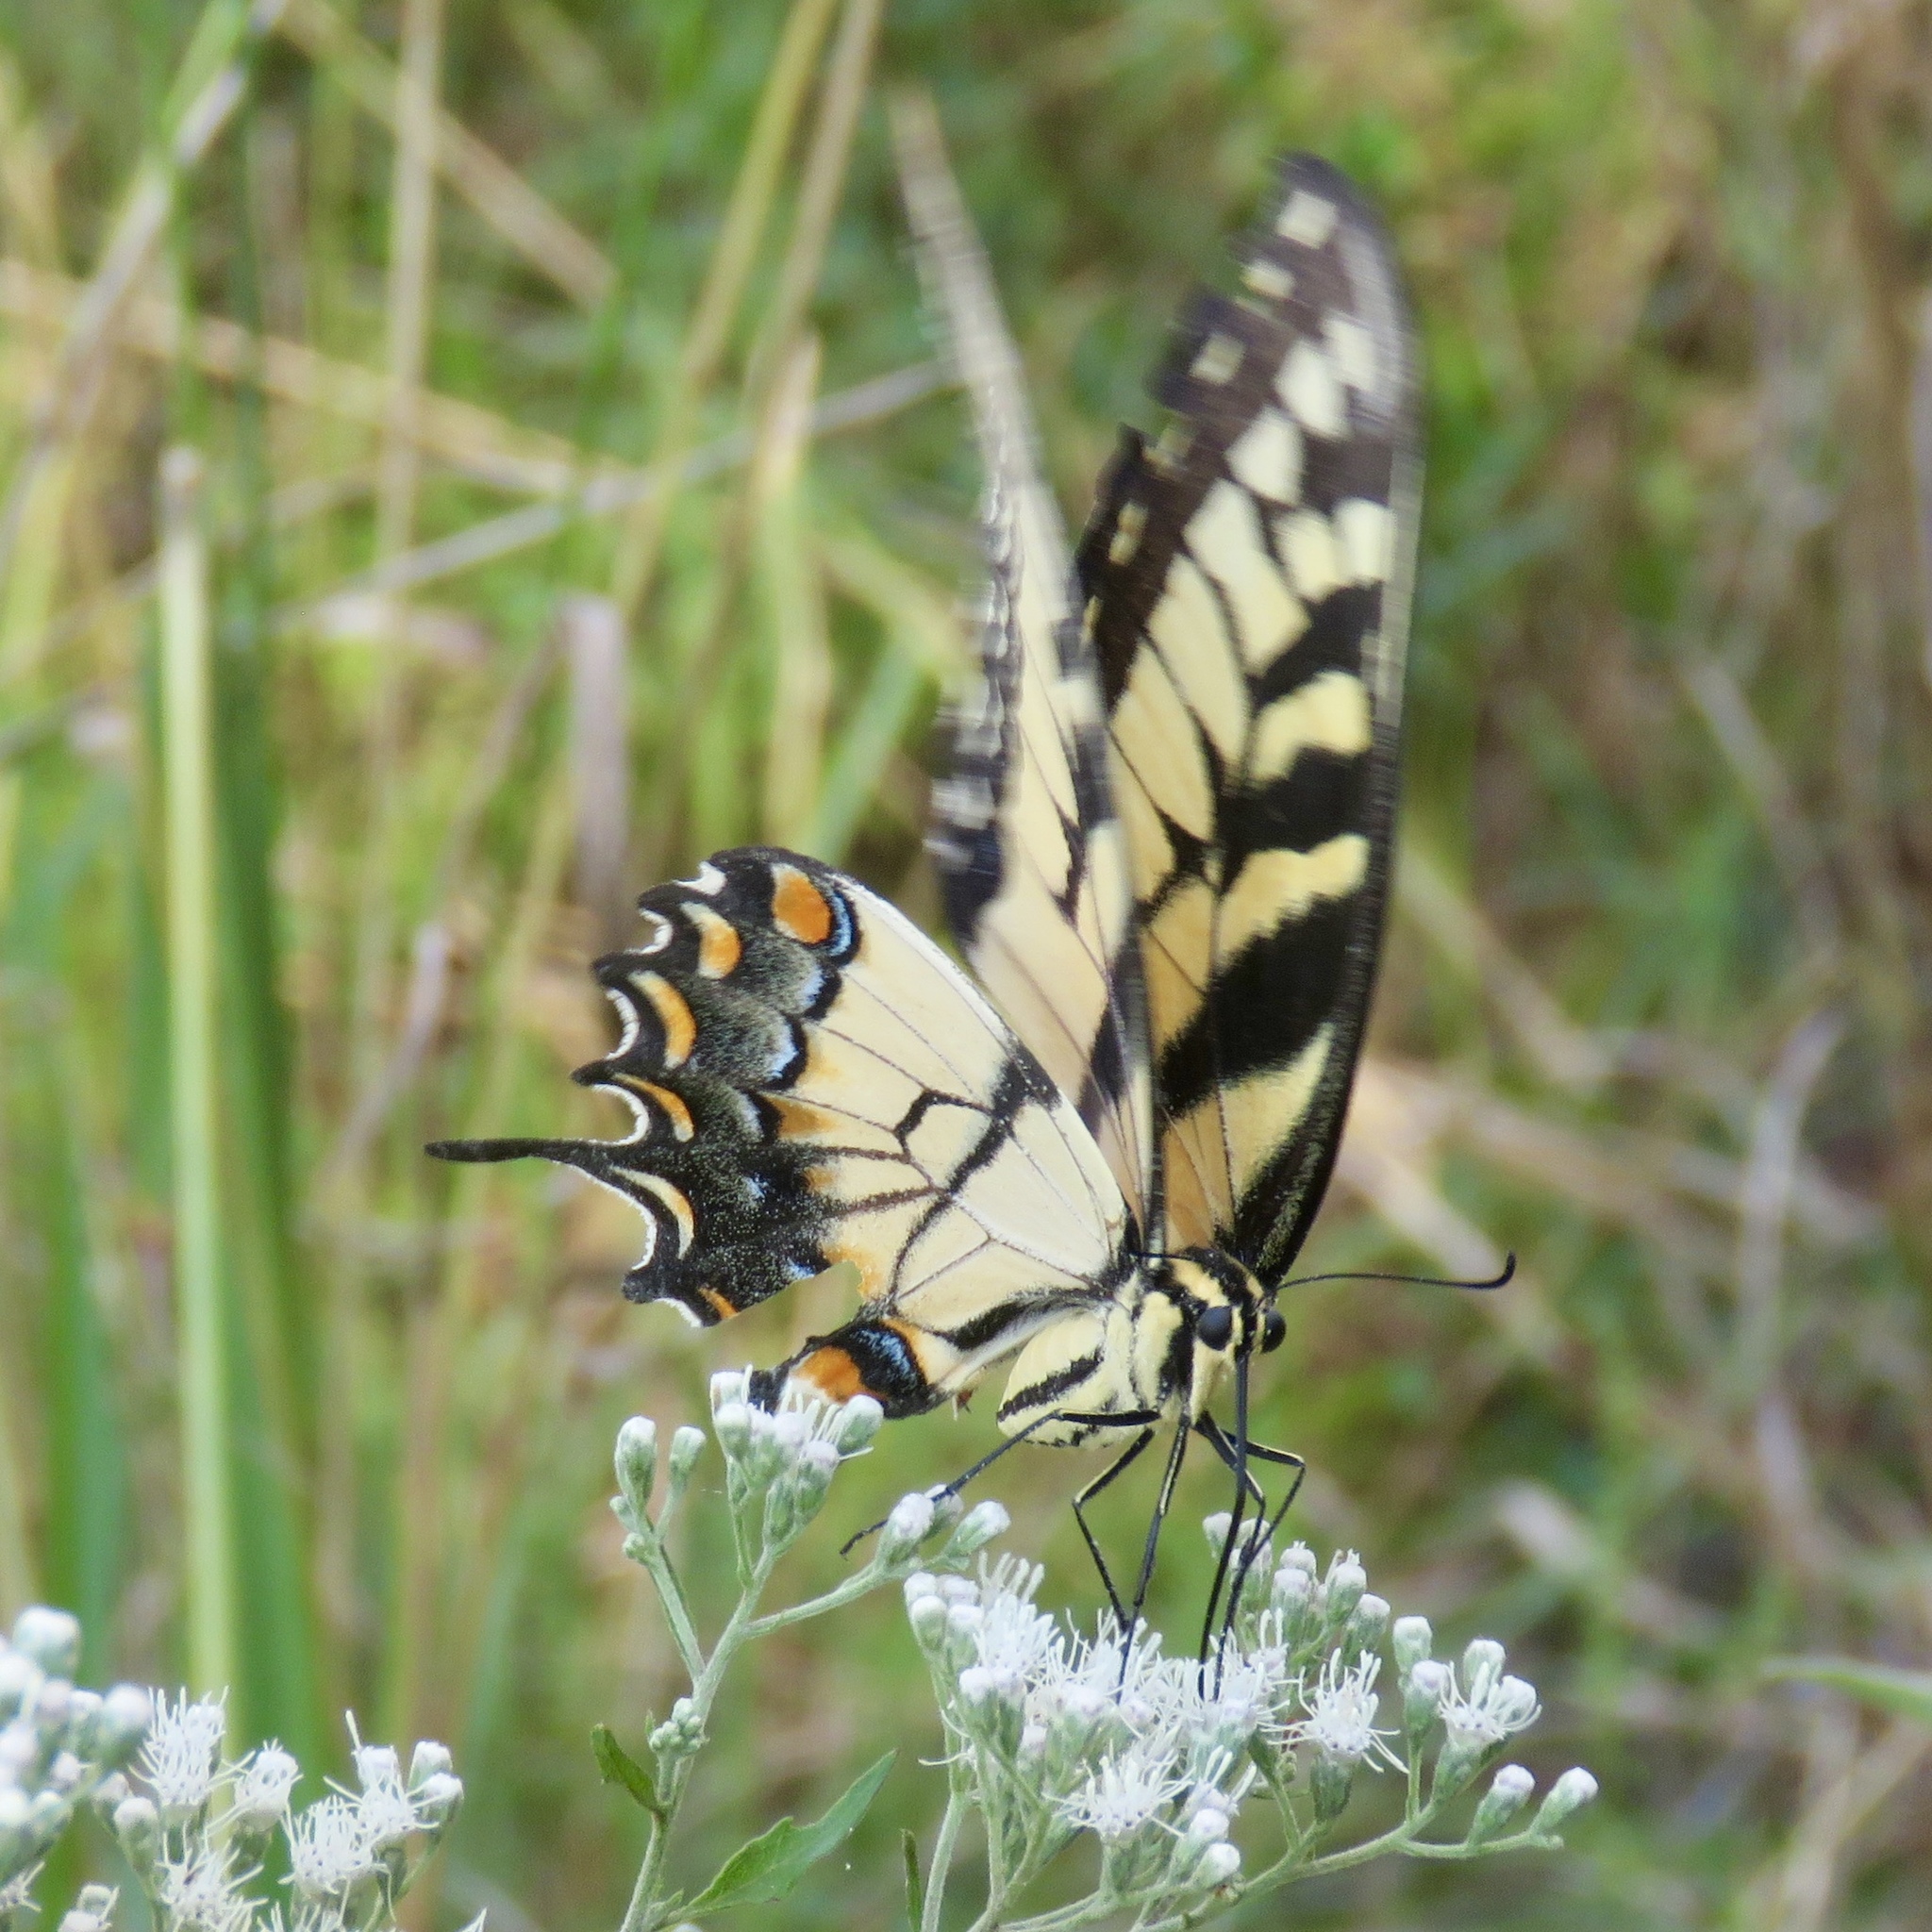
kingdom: Animalia
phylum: Arthropoda
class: Insecta
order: Lepidoptera
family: Papilionidae
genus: Papilio
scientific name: Papilio glaucus
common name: Tiger swallowtail
